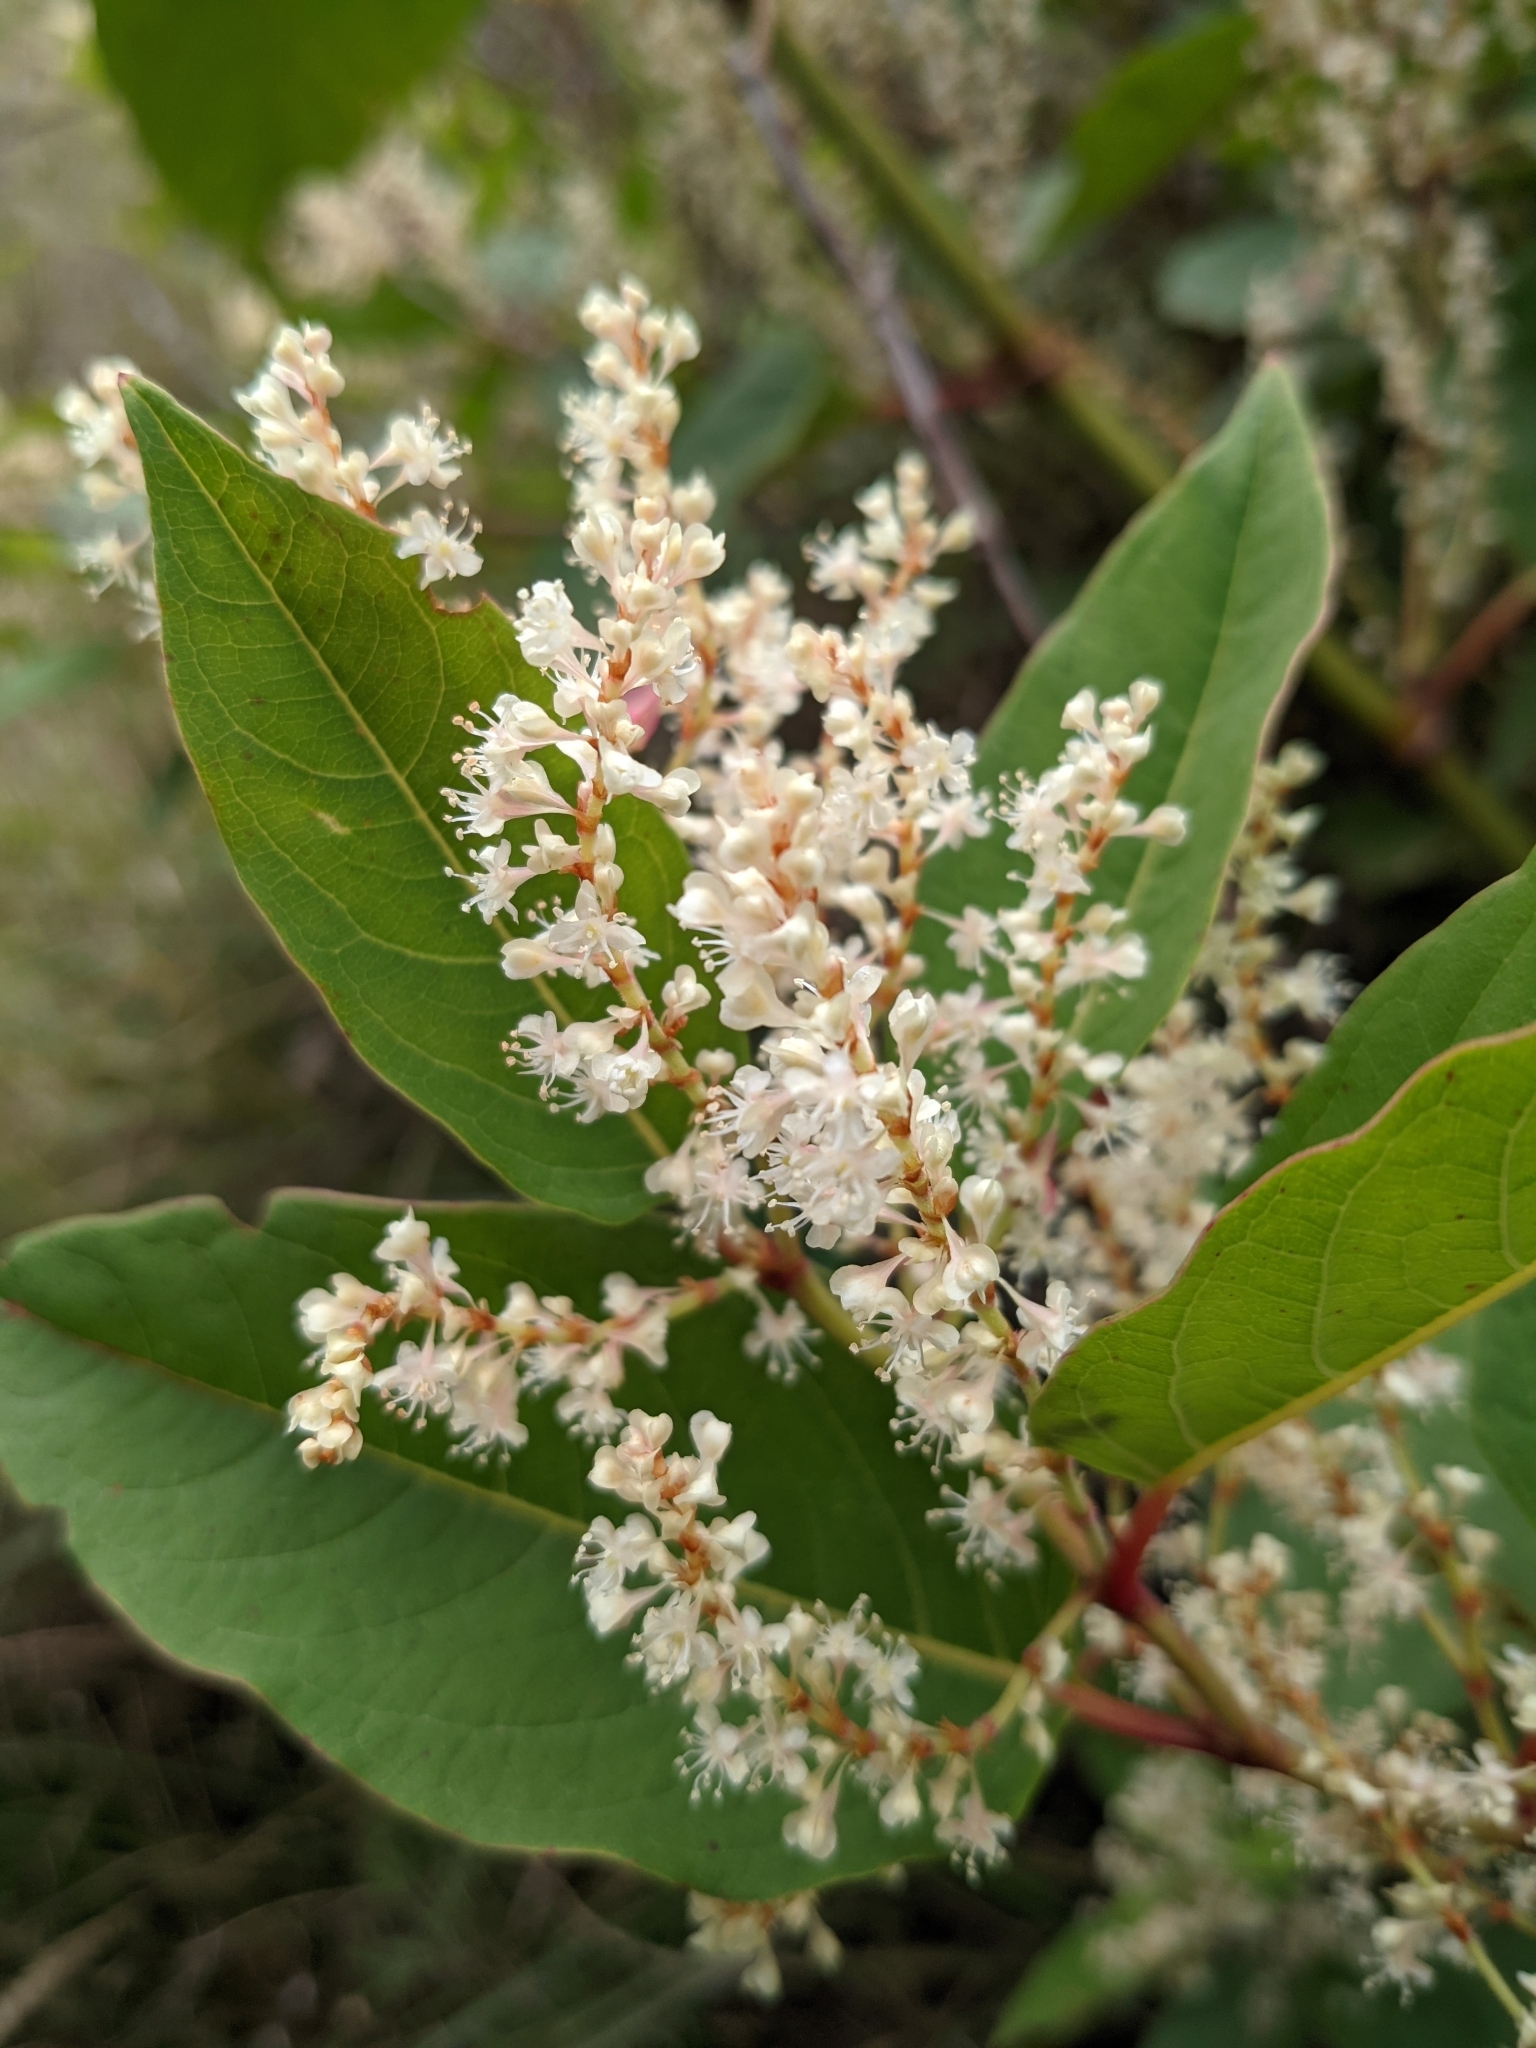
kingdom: Plantae
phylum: Tracheophyta
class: Magnoliopsida
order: Caryophyllales
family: Polygonaceae
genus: Reynoutria
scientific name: Reynoutria japonica
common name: Japanese knotweed
